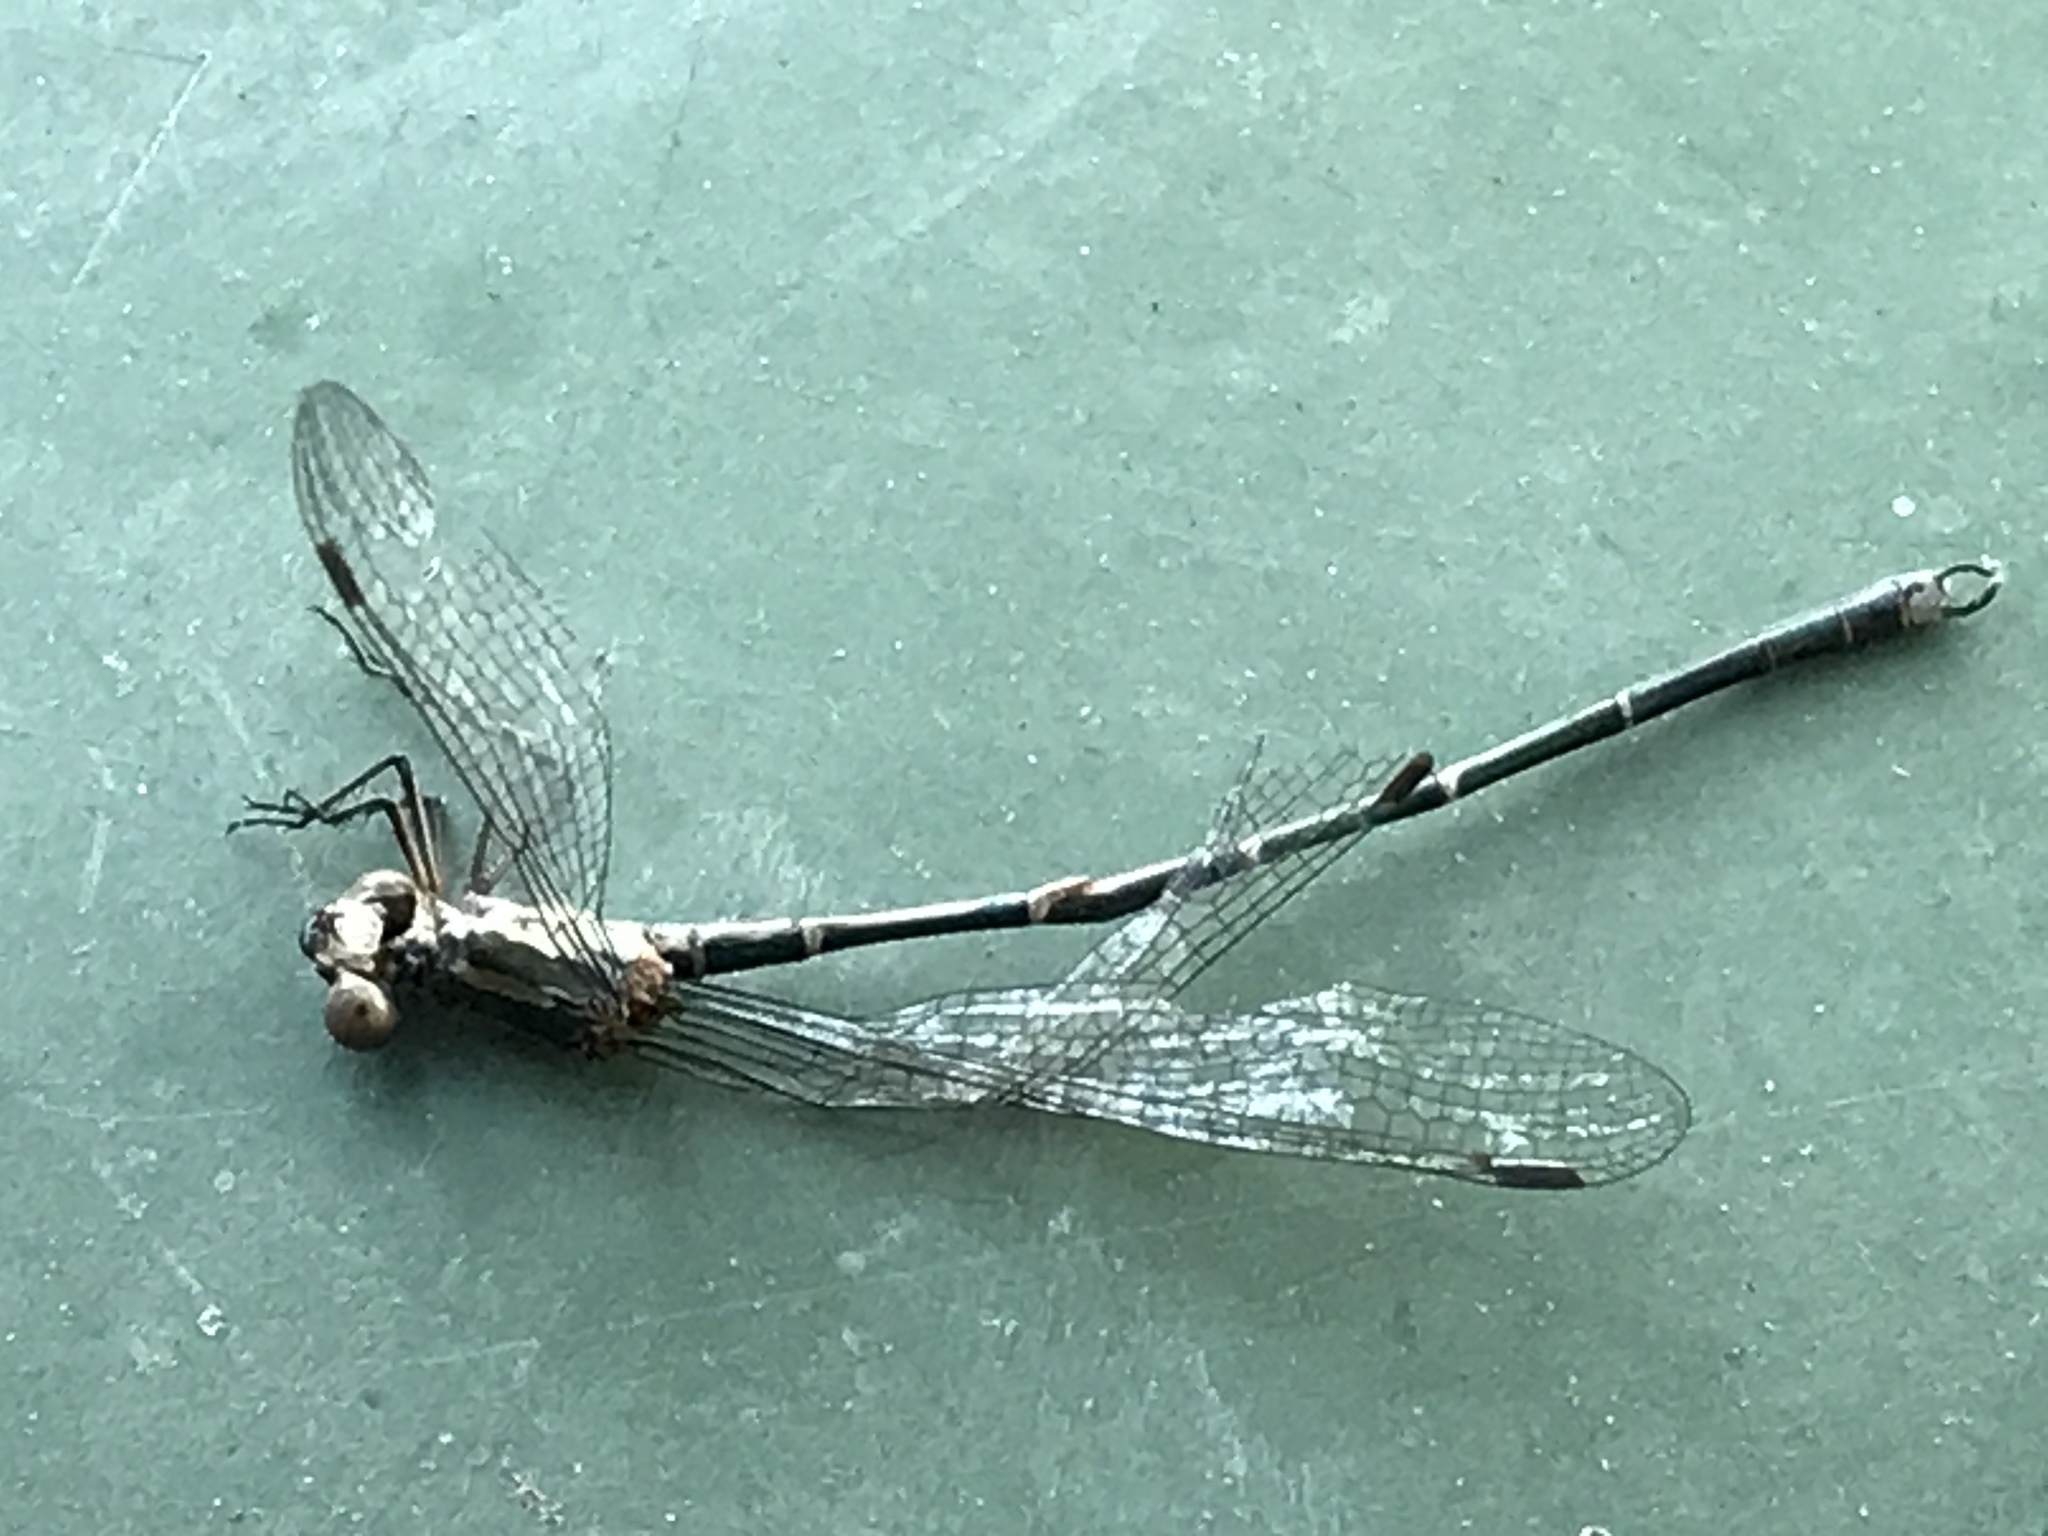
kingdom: Animalia
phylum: Arthropoda
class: Insecta
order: Odonata
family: Lestidae
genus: Austrolestes
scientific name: Austrolestes colensonis
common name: Blue damselfly
